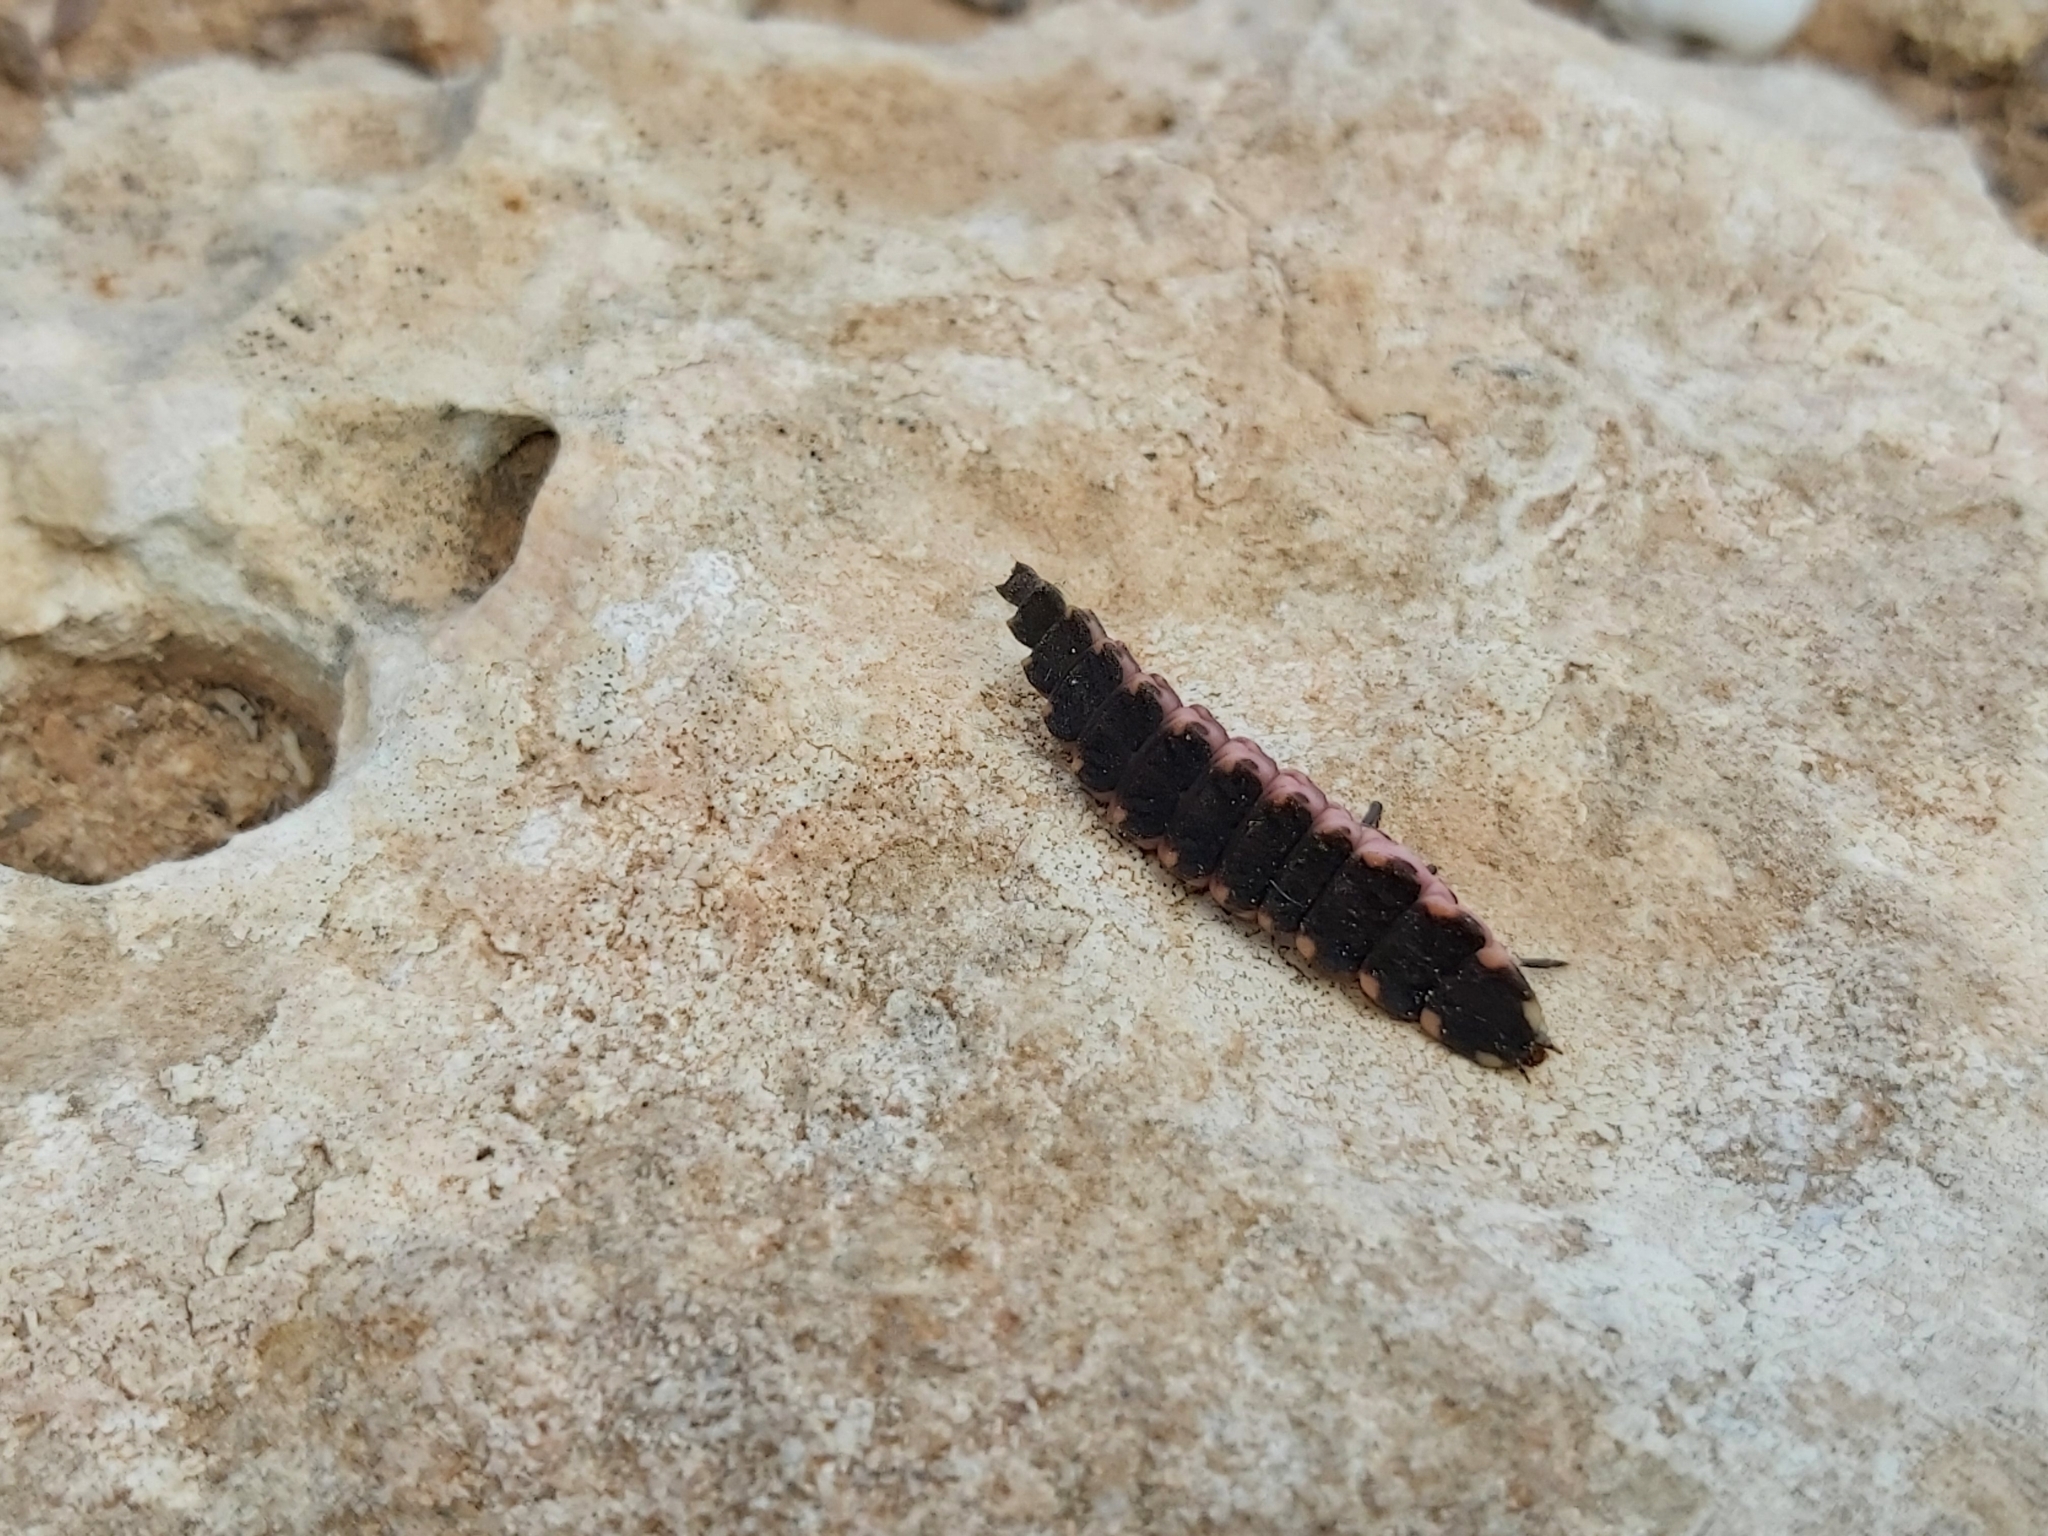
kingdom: Animalia
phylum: Arthropoda
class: Insecta
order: Coleoptera
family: Lampyridae
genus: Lampyris
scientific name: Lampyris pallida
